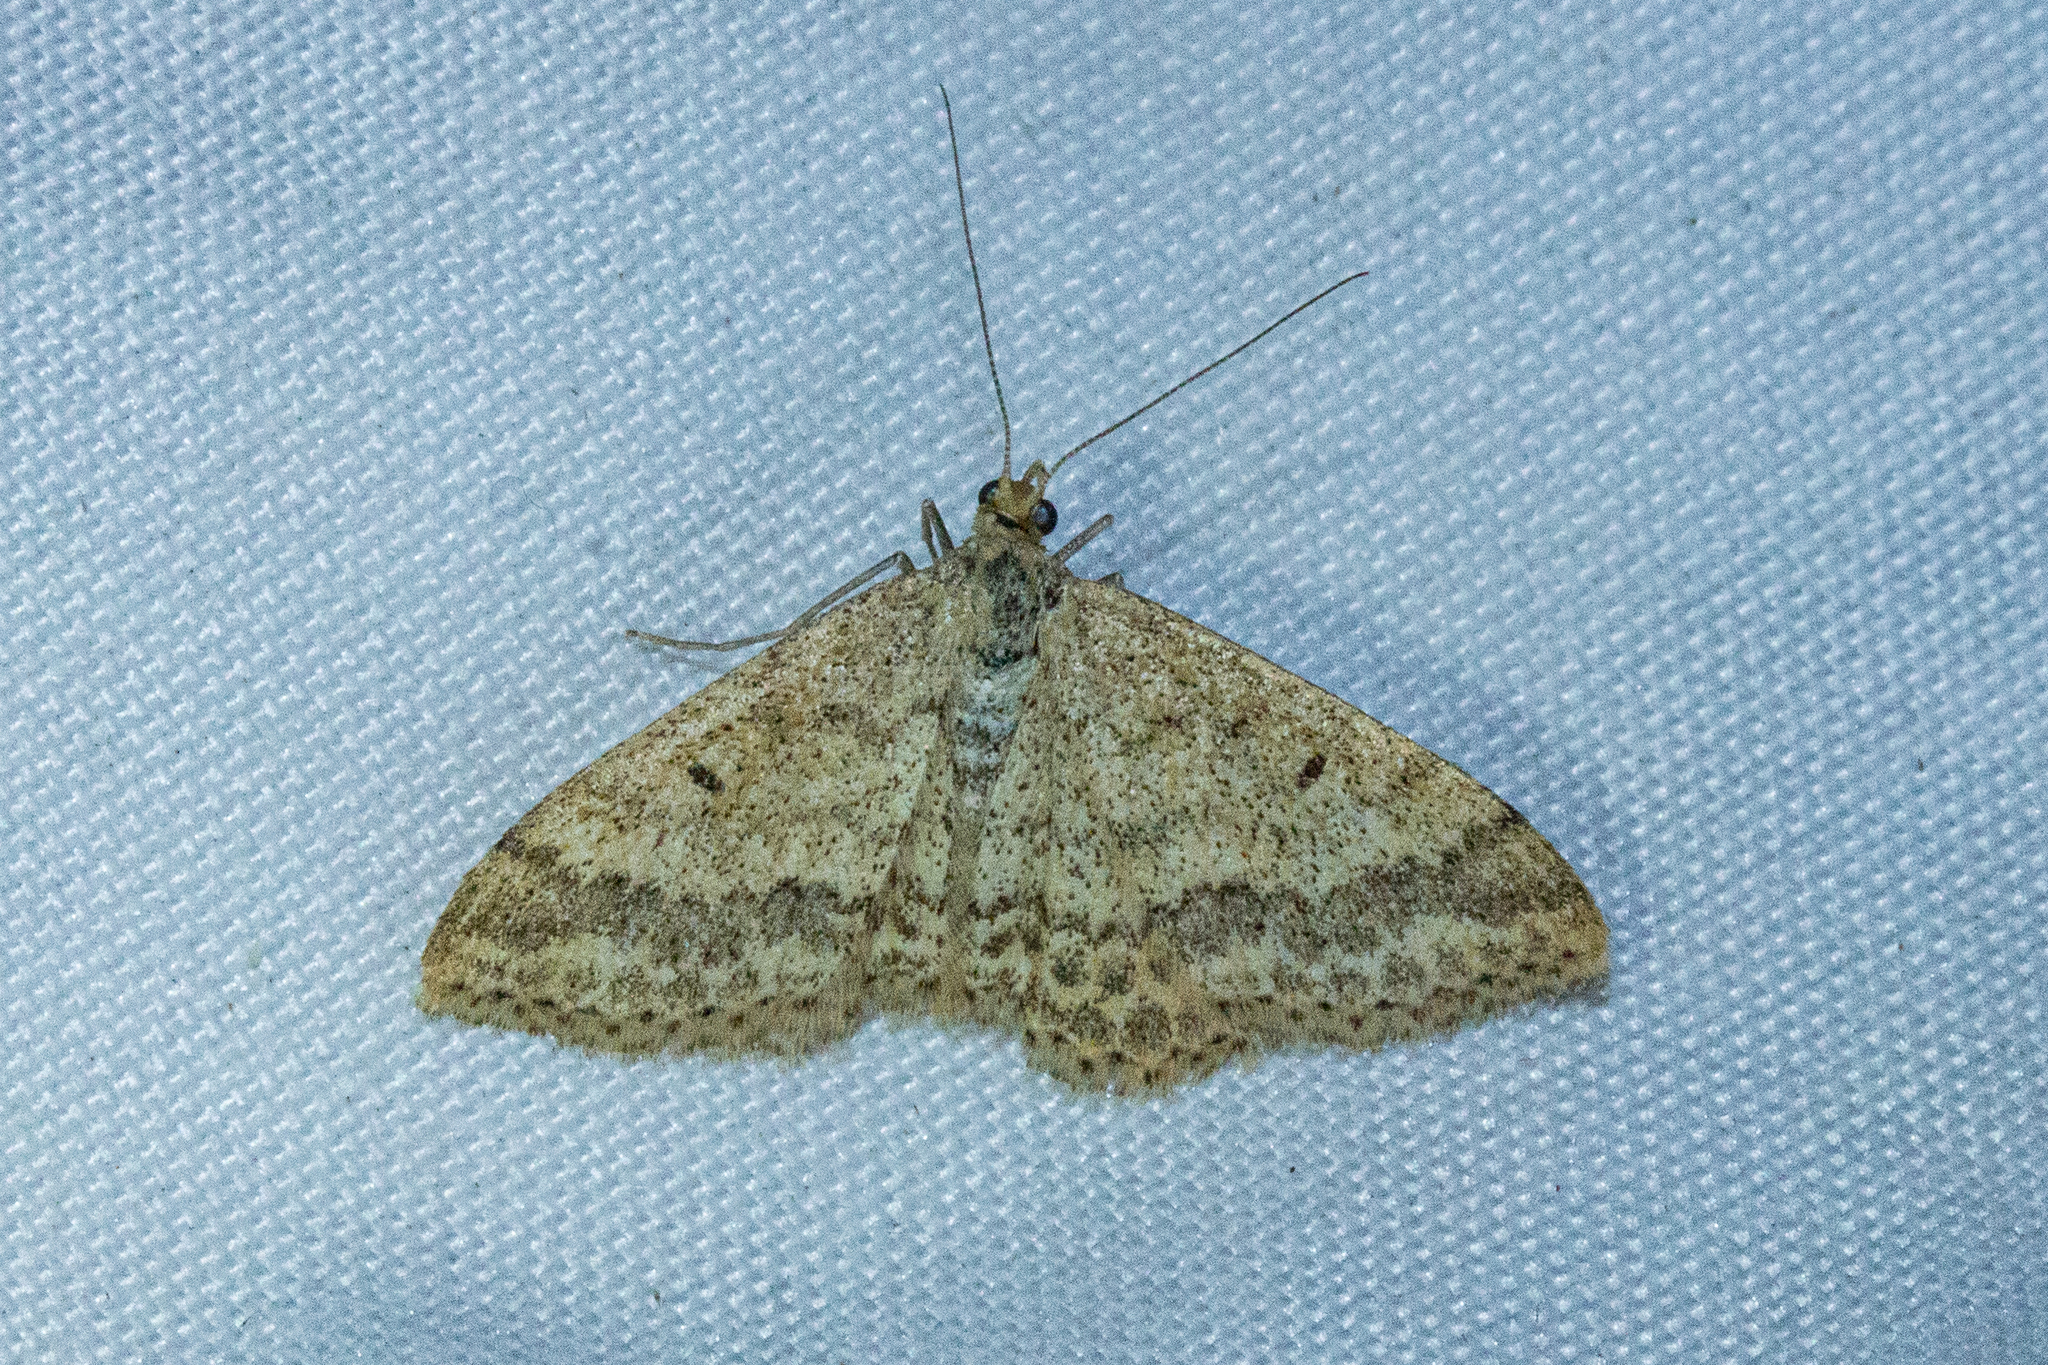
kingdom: Animalia
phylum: Arthropoda
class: Insecta
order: Lepidoptera
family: Geometridae
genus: Scopula
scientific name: Scopula rubraria
